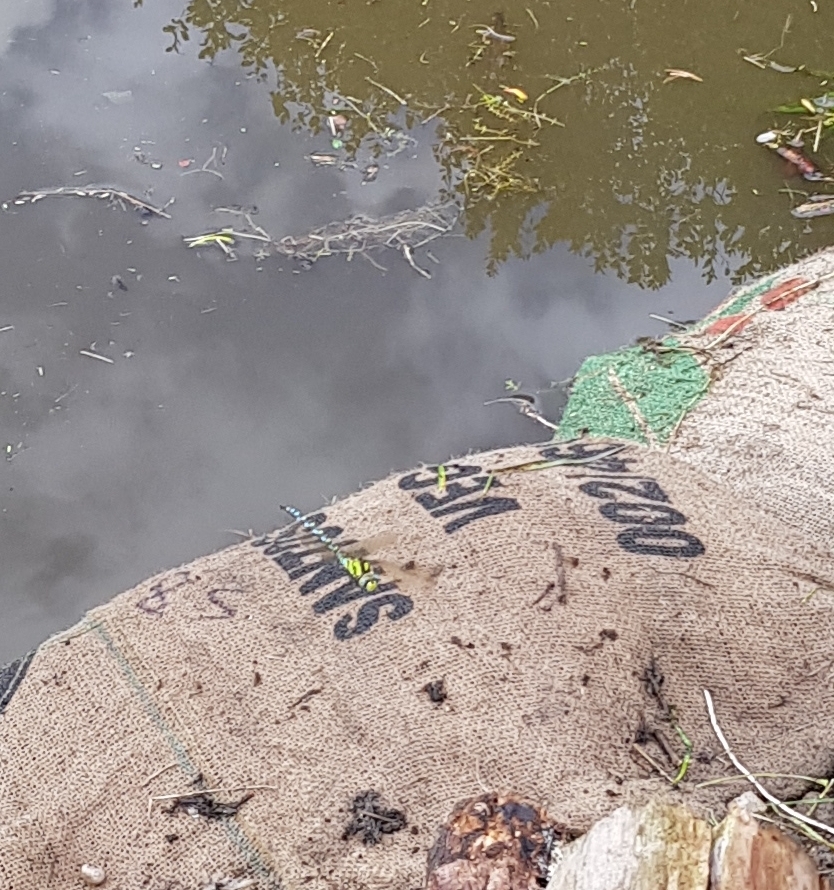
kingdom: Animalia
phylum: Arthropoda
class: Insecta
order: Odonata
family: Aeshnidae
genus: Aeshna
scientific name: Aeshna cyanea
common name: Southern hawker
